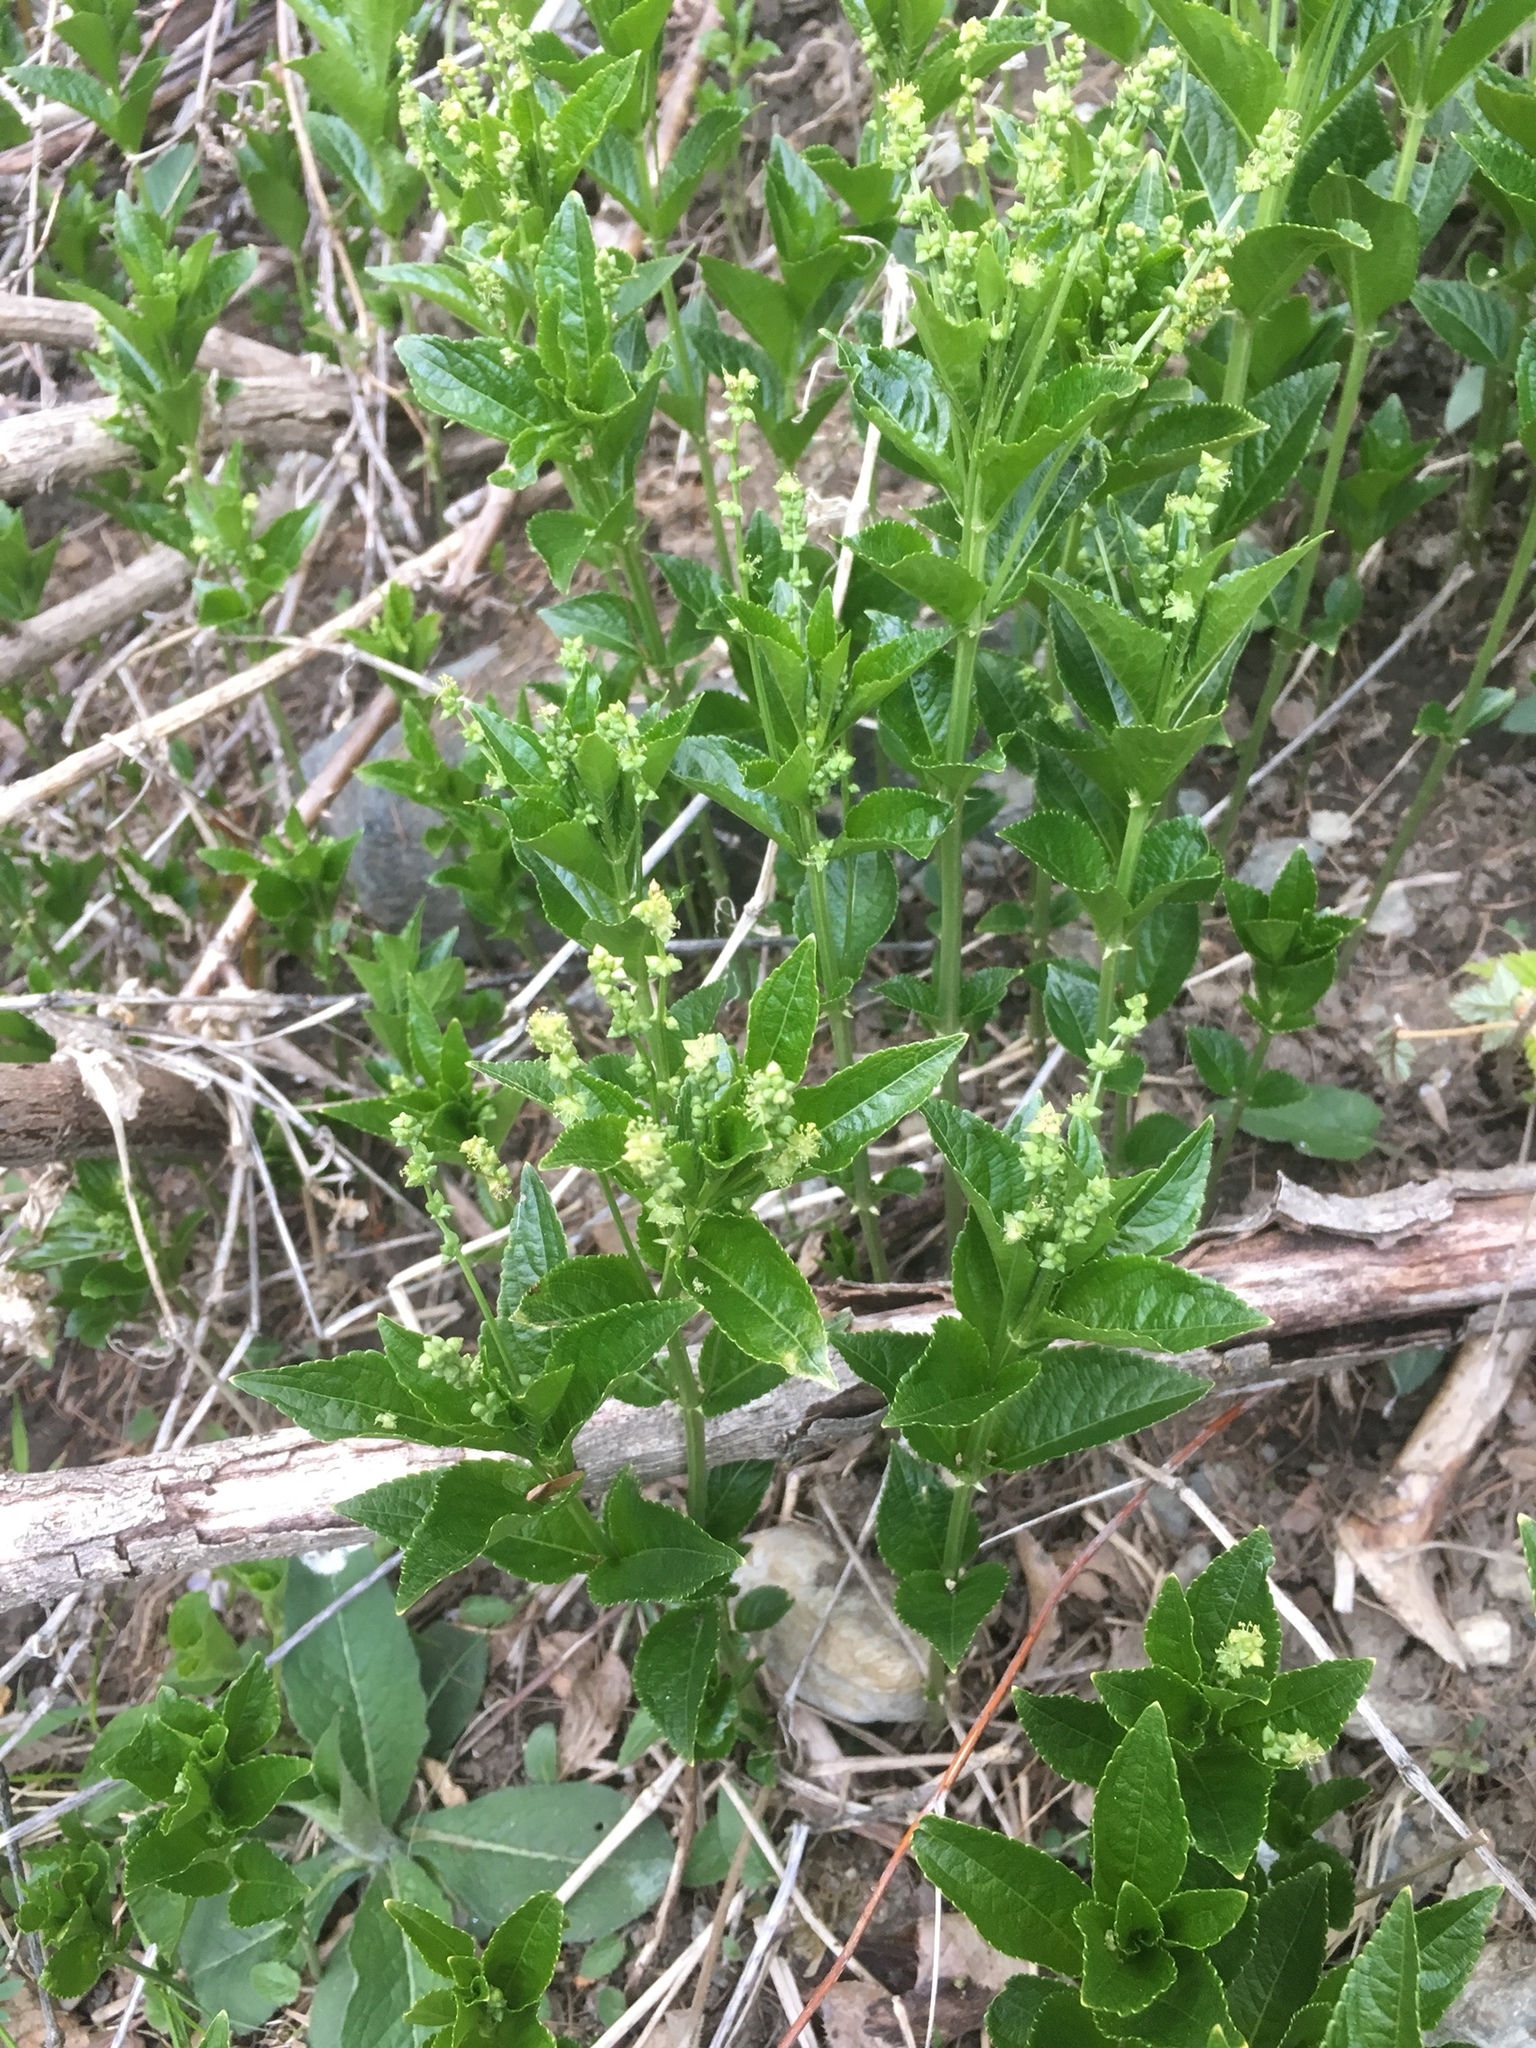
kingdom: Plantae
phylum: Tracheophyta
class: Magnoliopsida
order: Malpighiales
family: Euphorbiaceae
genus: Mercurialis
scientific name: Mercurialis ovata
